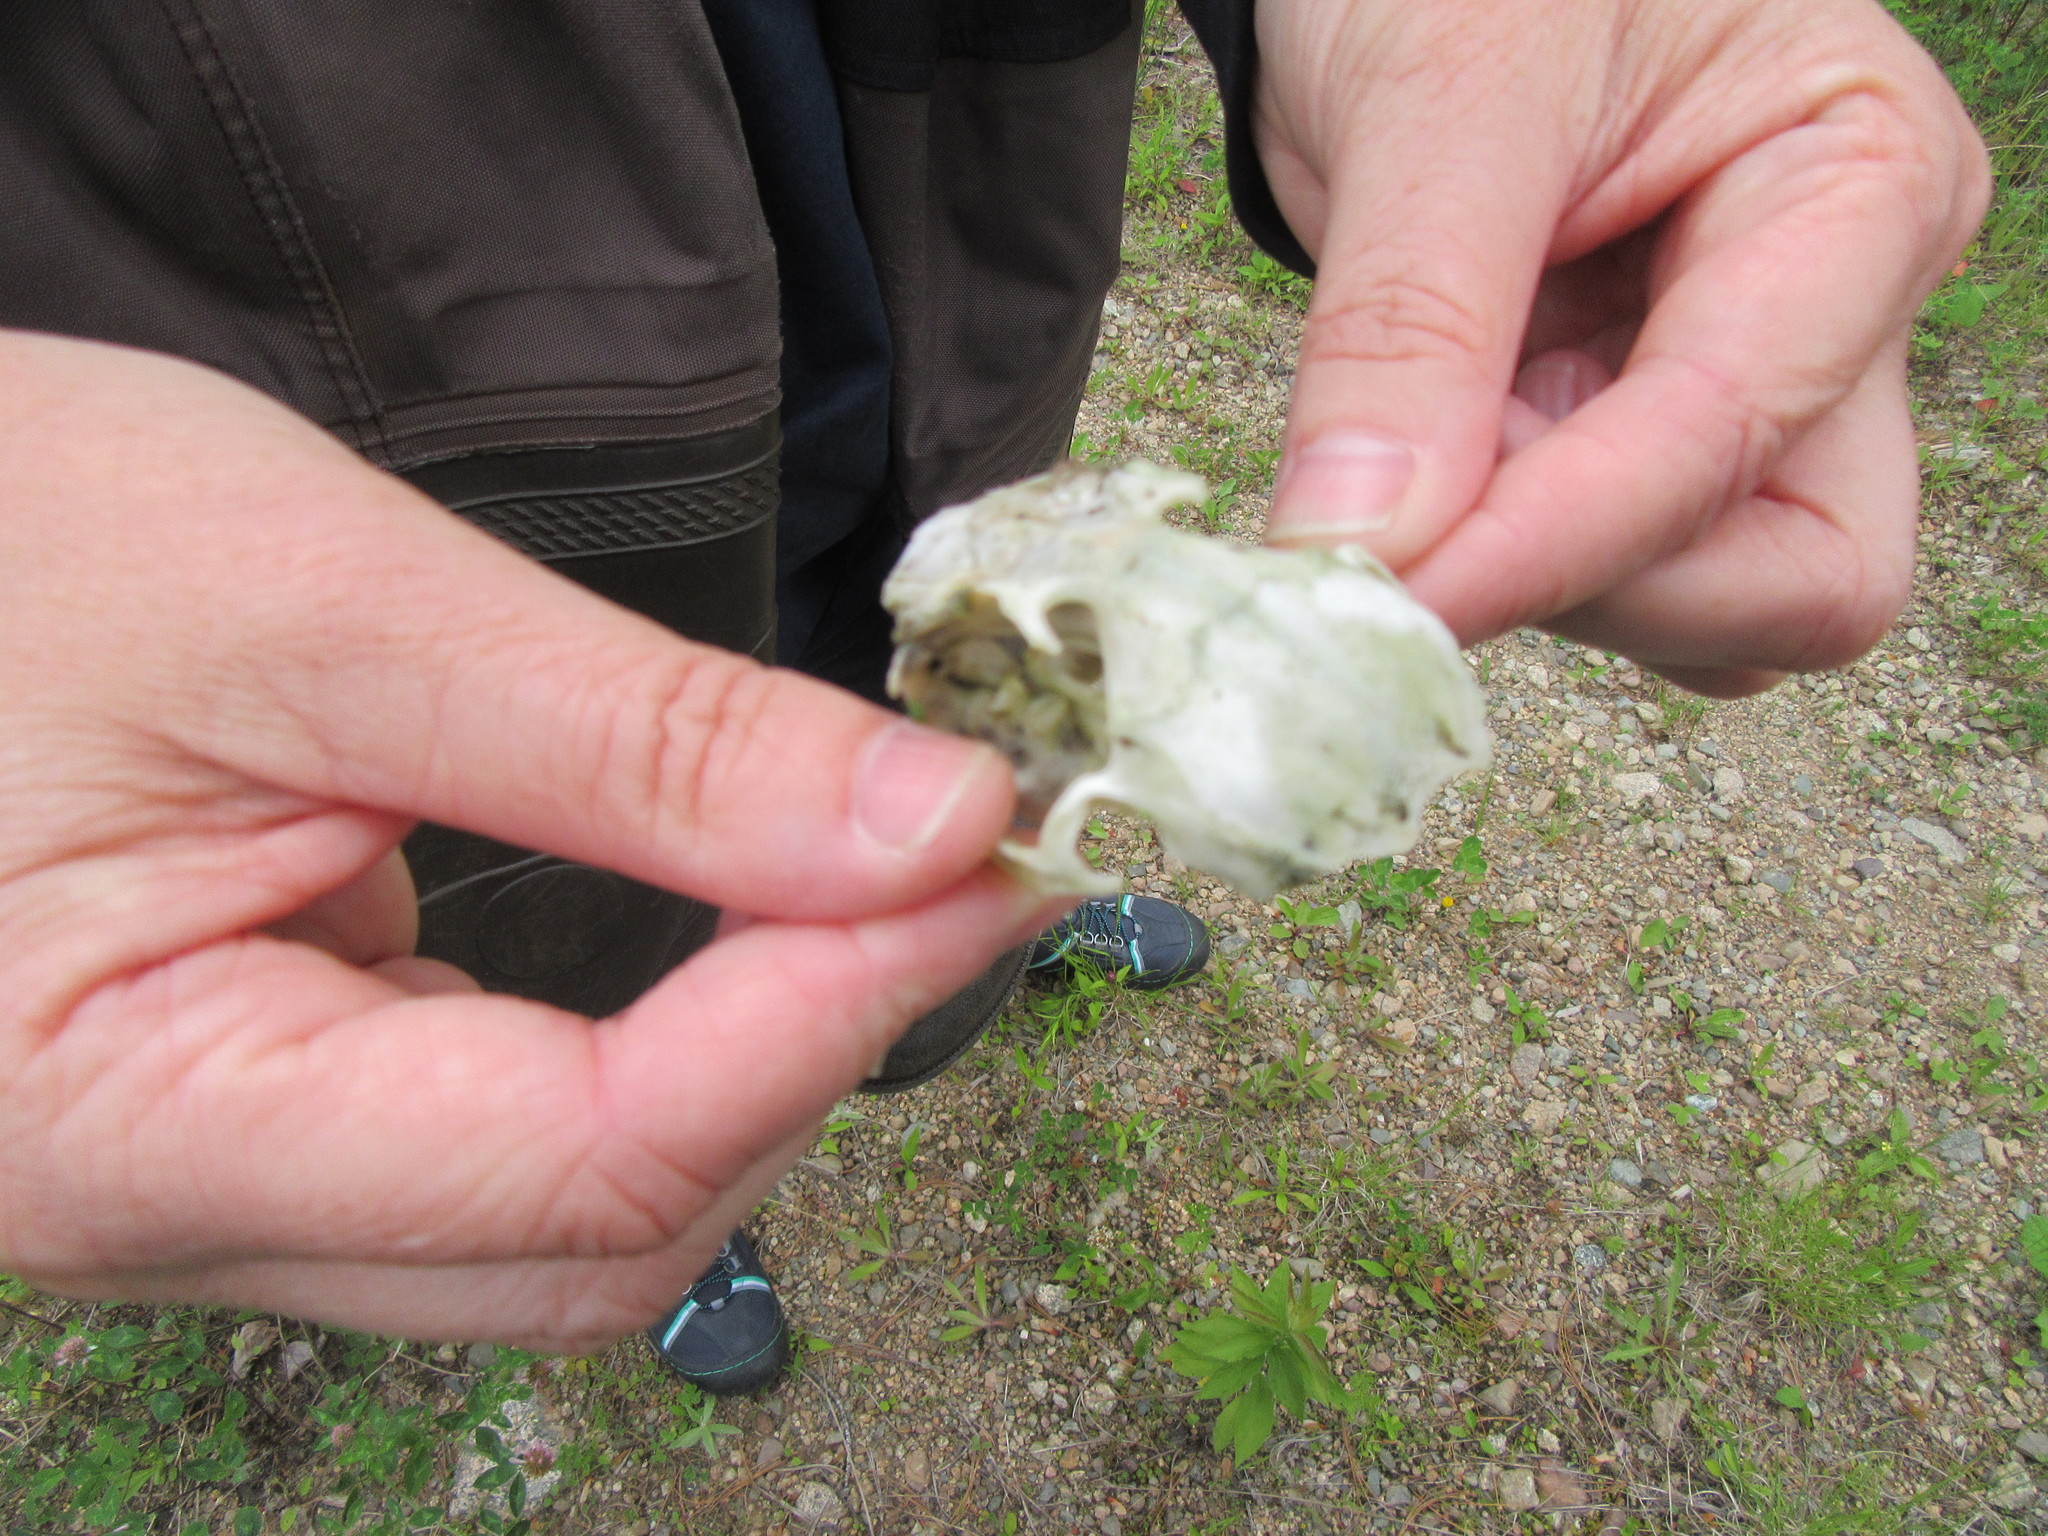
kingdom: Animalia
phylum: Chordata
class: Mammalia
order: Lagomorpha
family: Leporidae
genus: Lepus
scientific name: Lepus americanus
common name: Snowshoe hare
